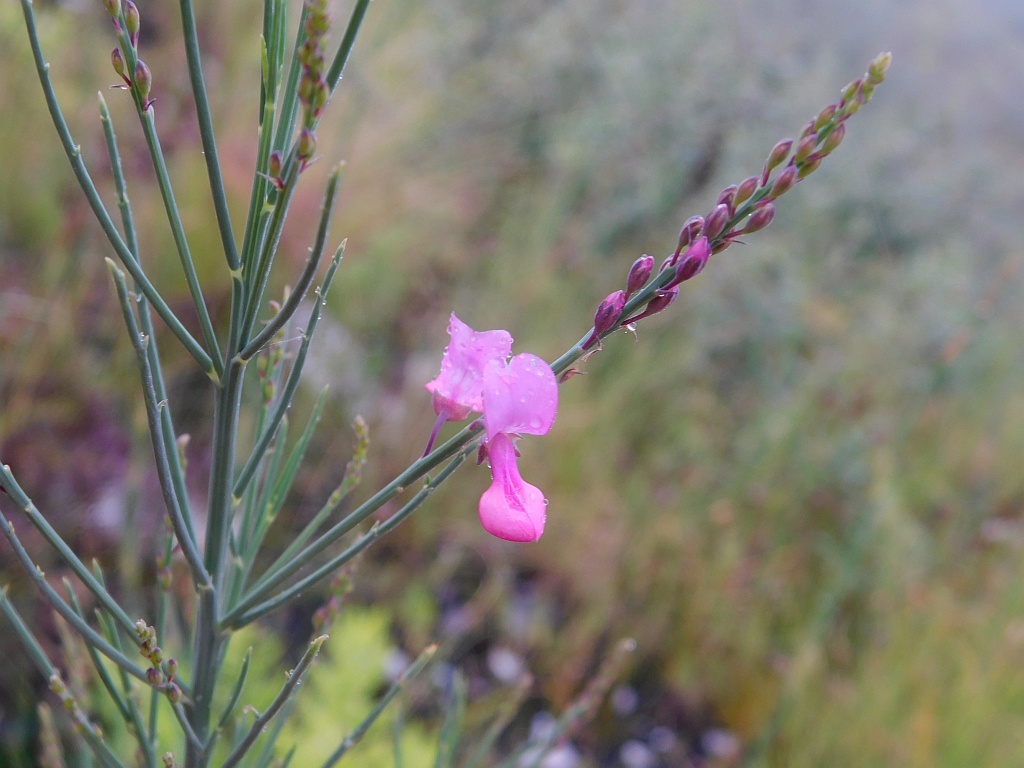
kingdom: Plantae
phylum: Tracheophyta
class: Magnoliopsida
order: Fabales
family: Fabaceae
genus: Indigofera
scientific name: Indigofera filifolia
